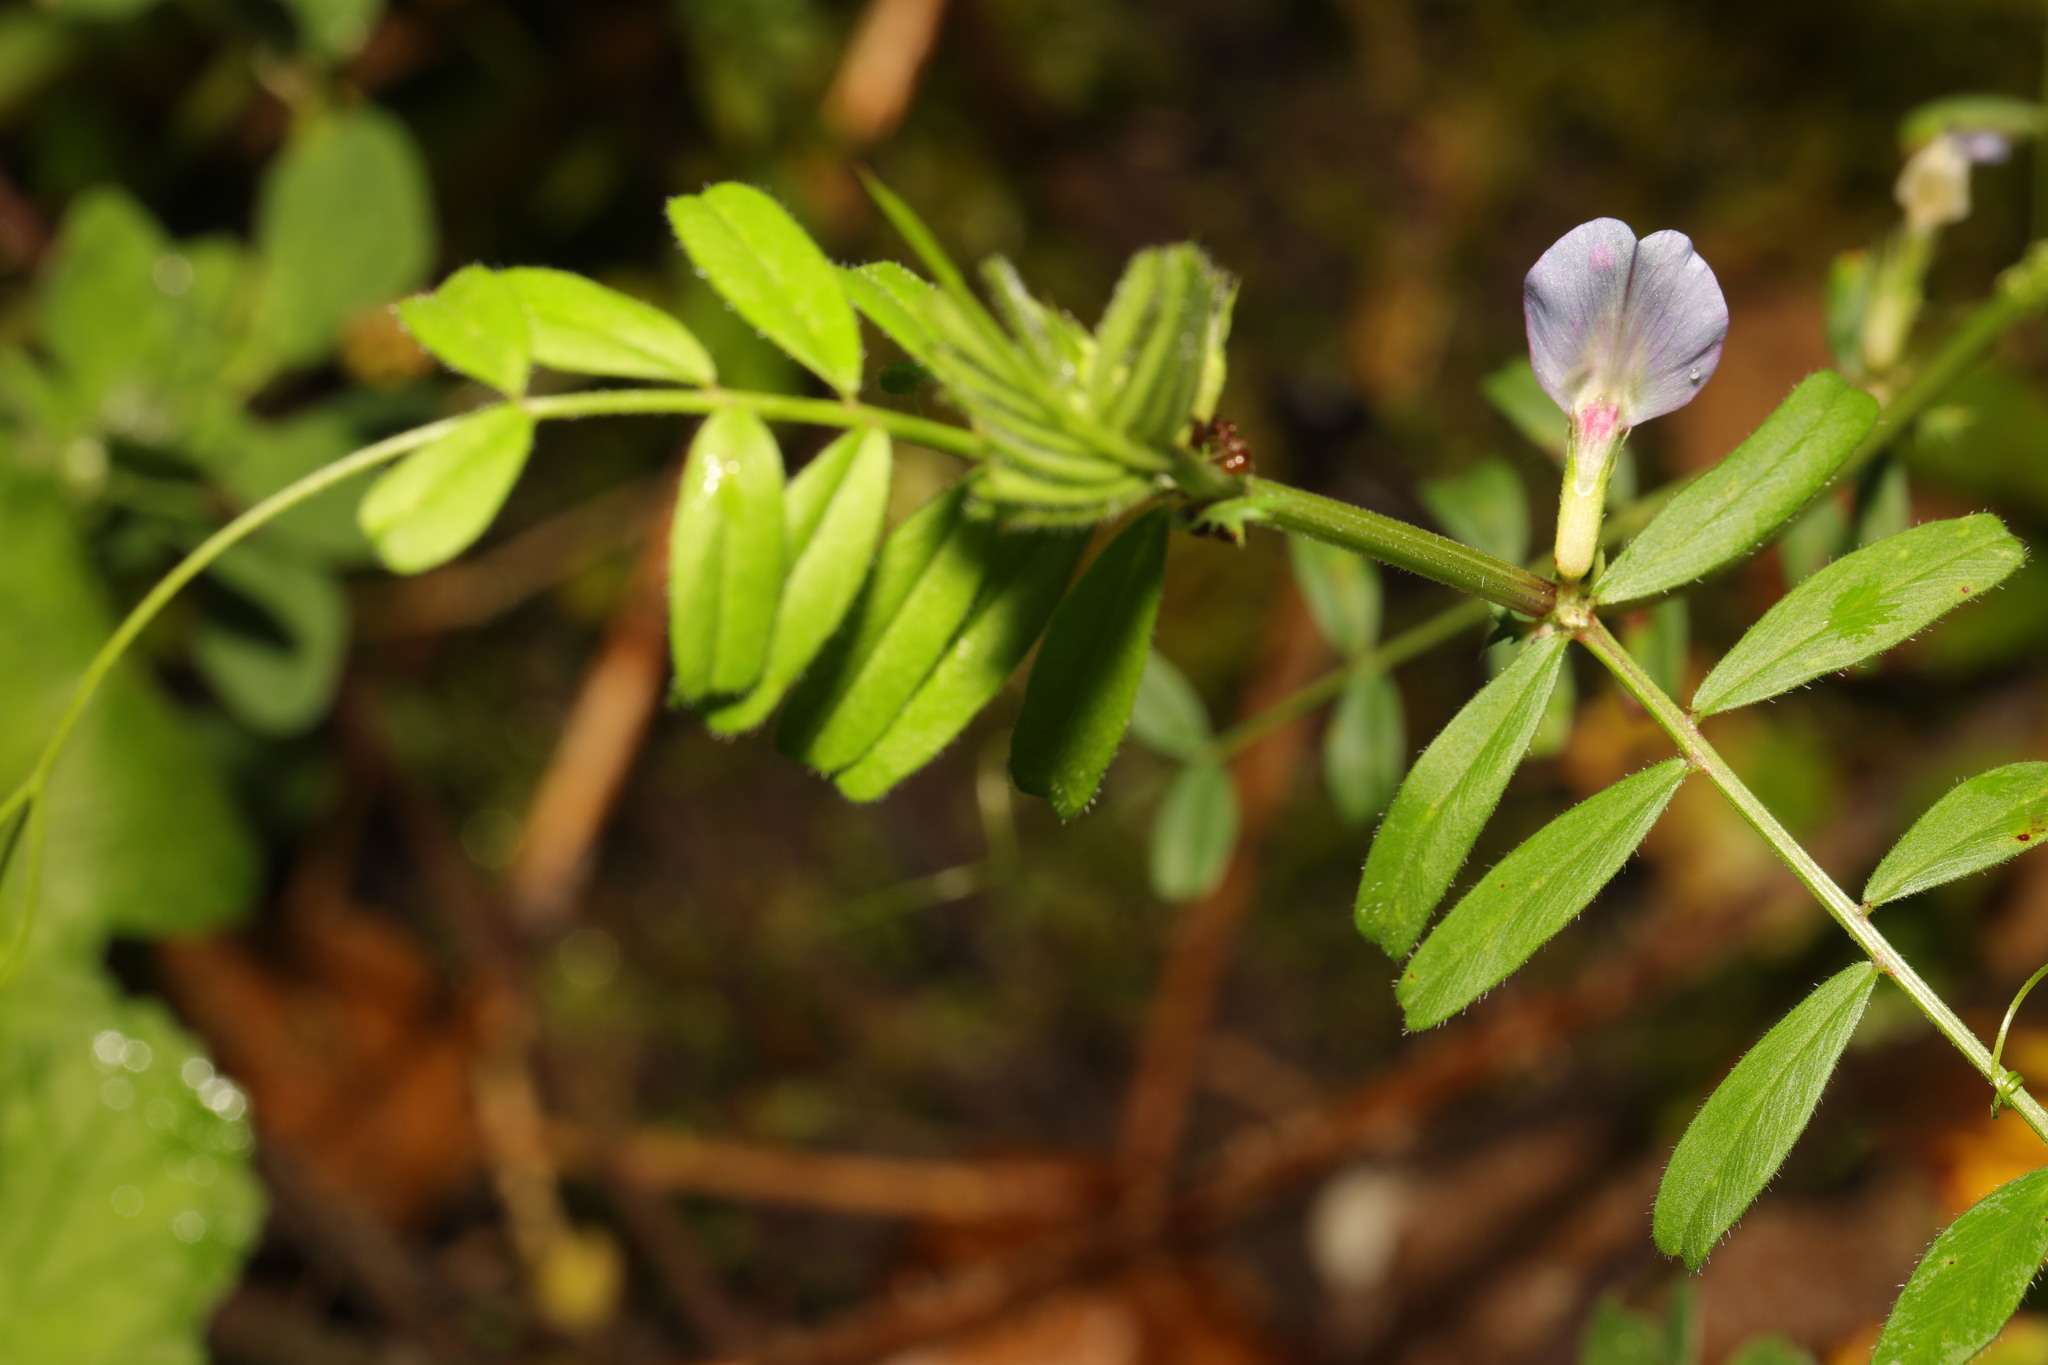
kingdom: Plantae
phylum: Tracheophyta
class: Magnoliopsida
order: Fabales
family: Fabaceae
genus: Vicia
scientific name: Vicia sativa
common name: Garden vetch
